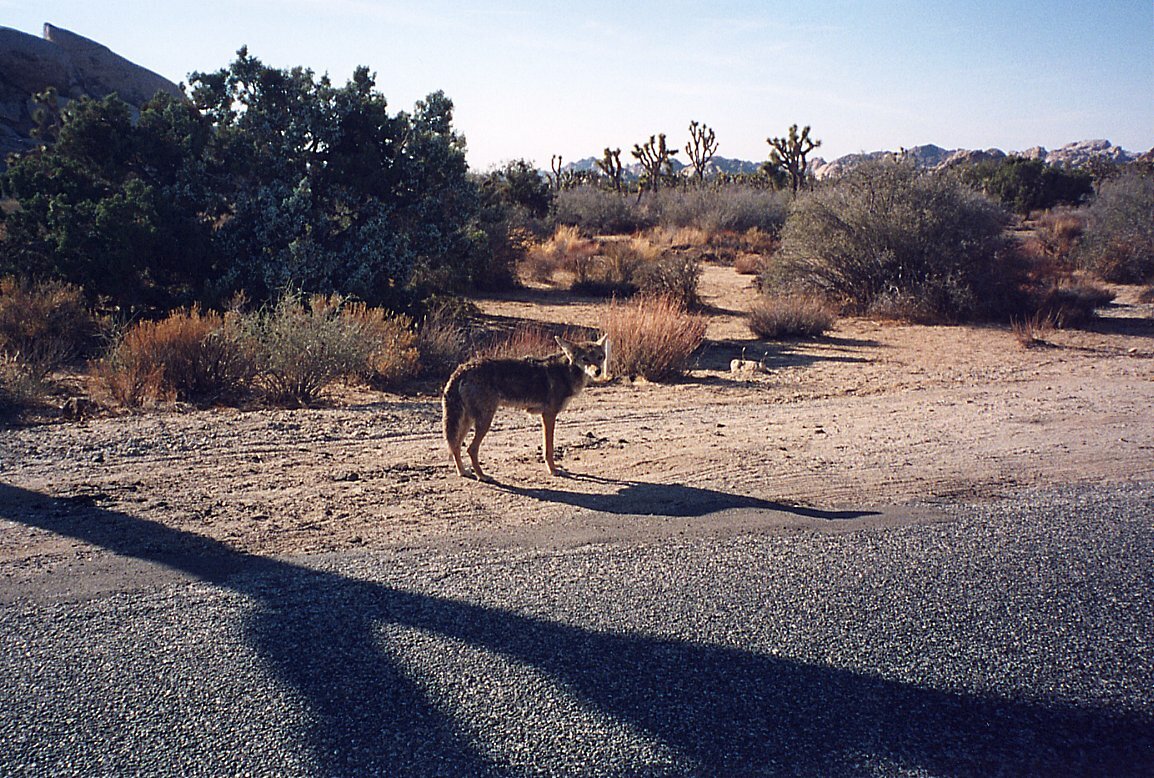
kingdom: Animalia
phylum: Chordata
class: Mammalia
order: Carnivora
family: Canidae
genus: Canis
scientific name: Canis latrans
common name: Coyote
